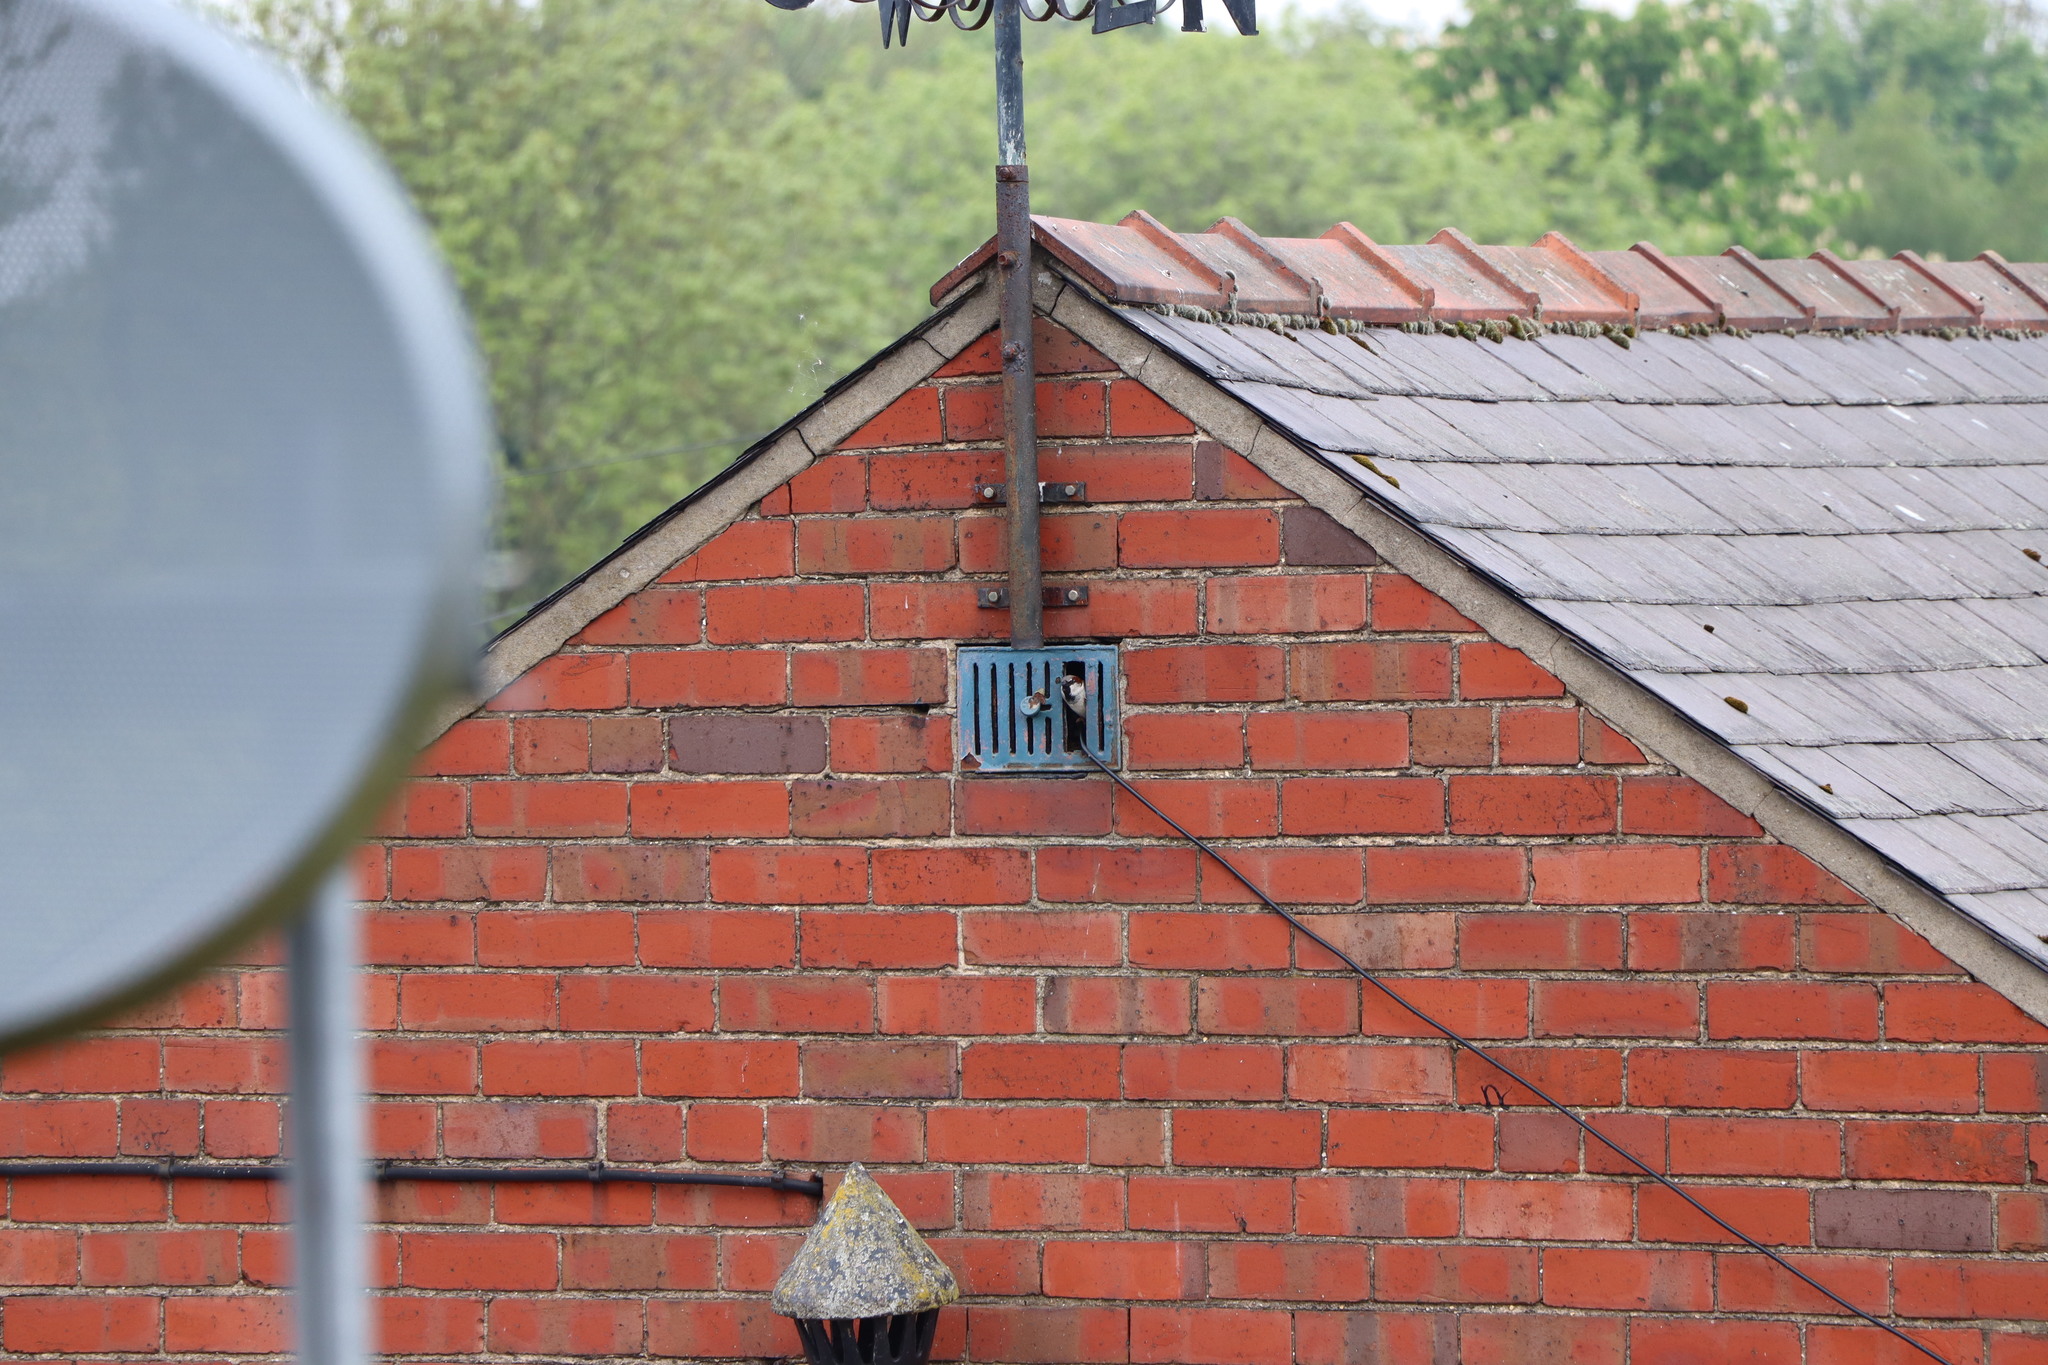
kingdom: Animalia
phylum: Chordata
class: Aves
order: Passeriformes
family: Passeridae
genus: Passer
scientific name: Passer domesticus
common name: House sparrow
